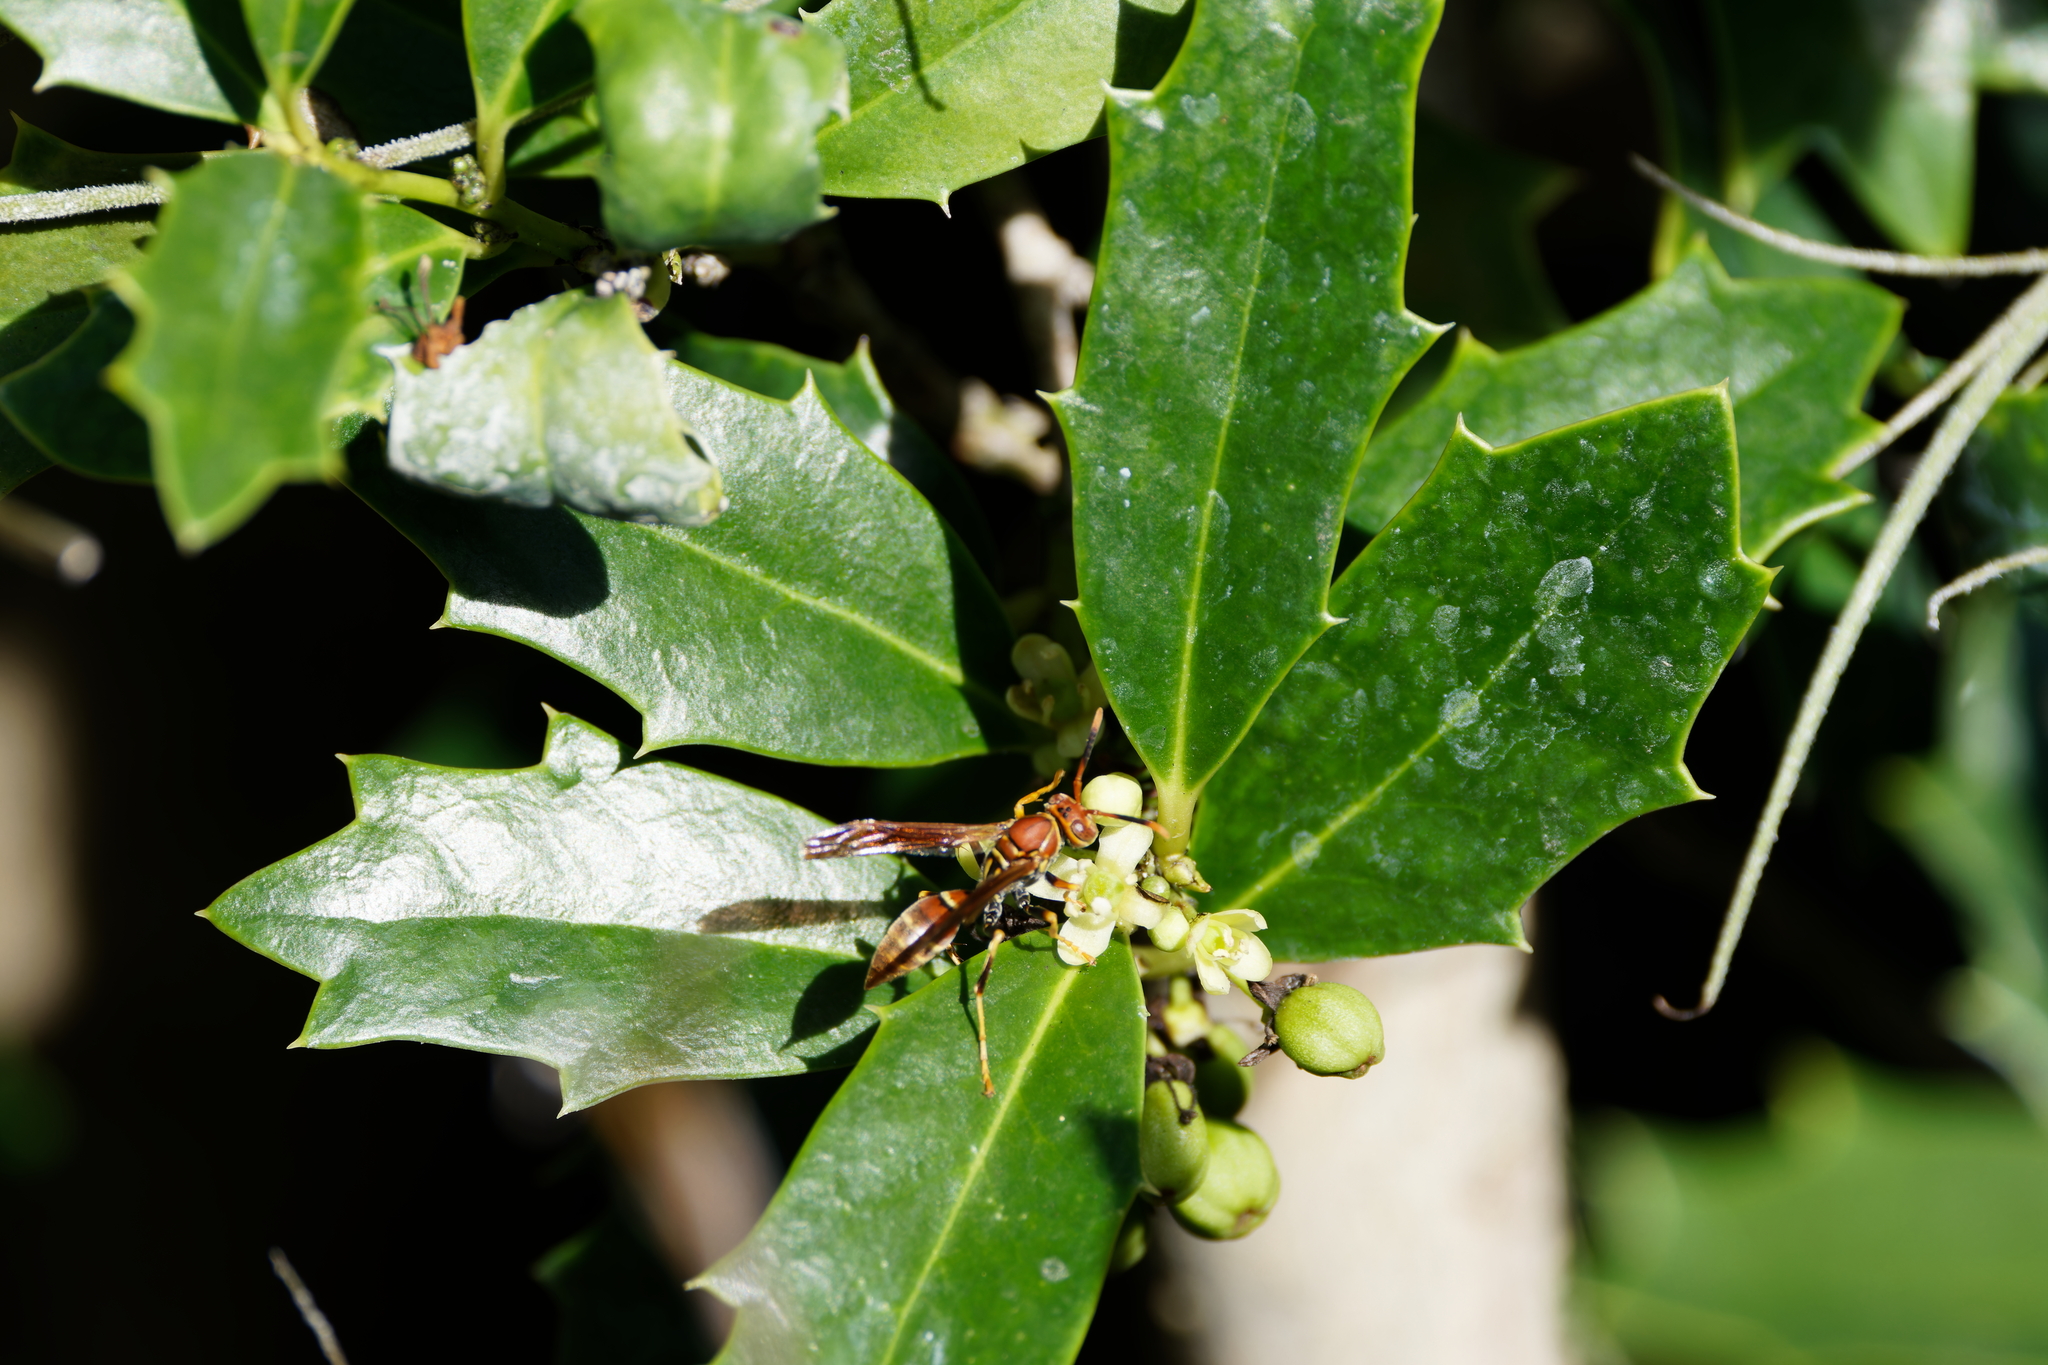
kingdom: Animalia
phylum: Arthropoda
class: Insecta
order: Hymenoptera
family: Eumenidae
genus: Polistes
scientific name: Polistes bahamensis
